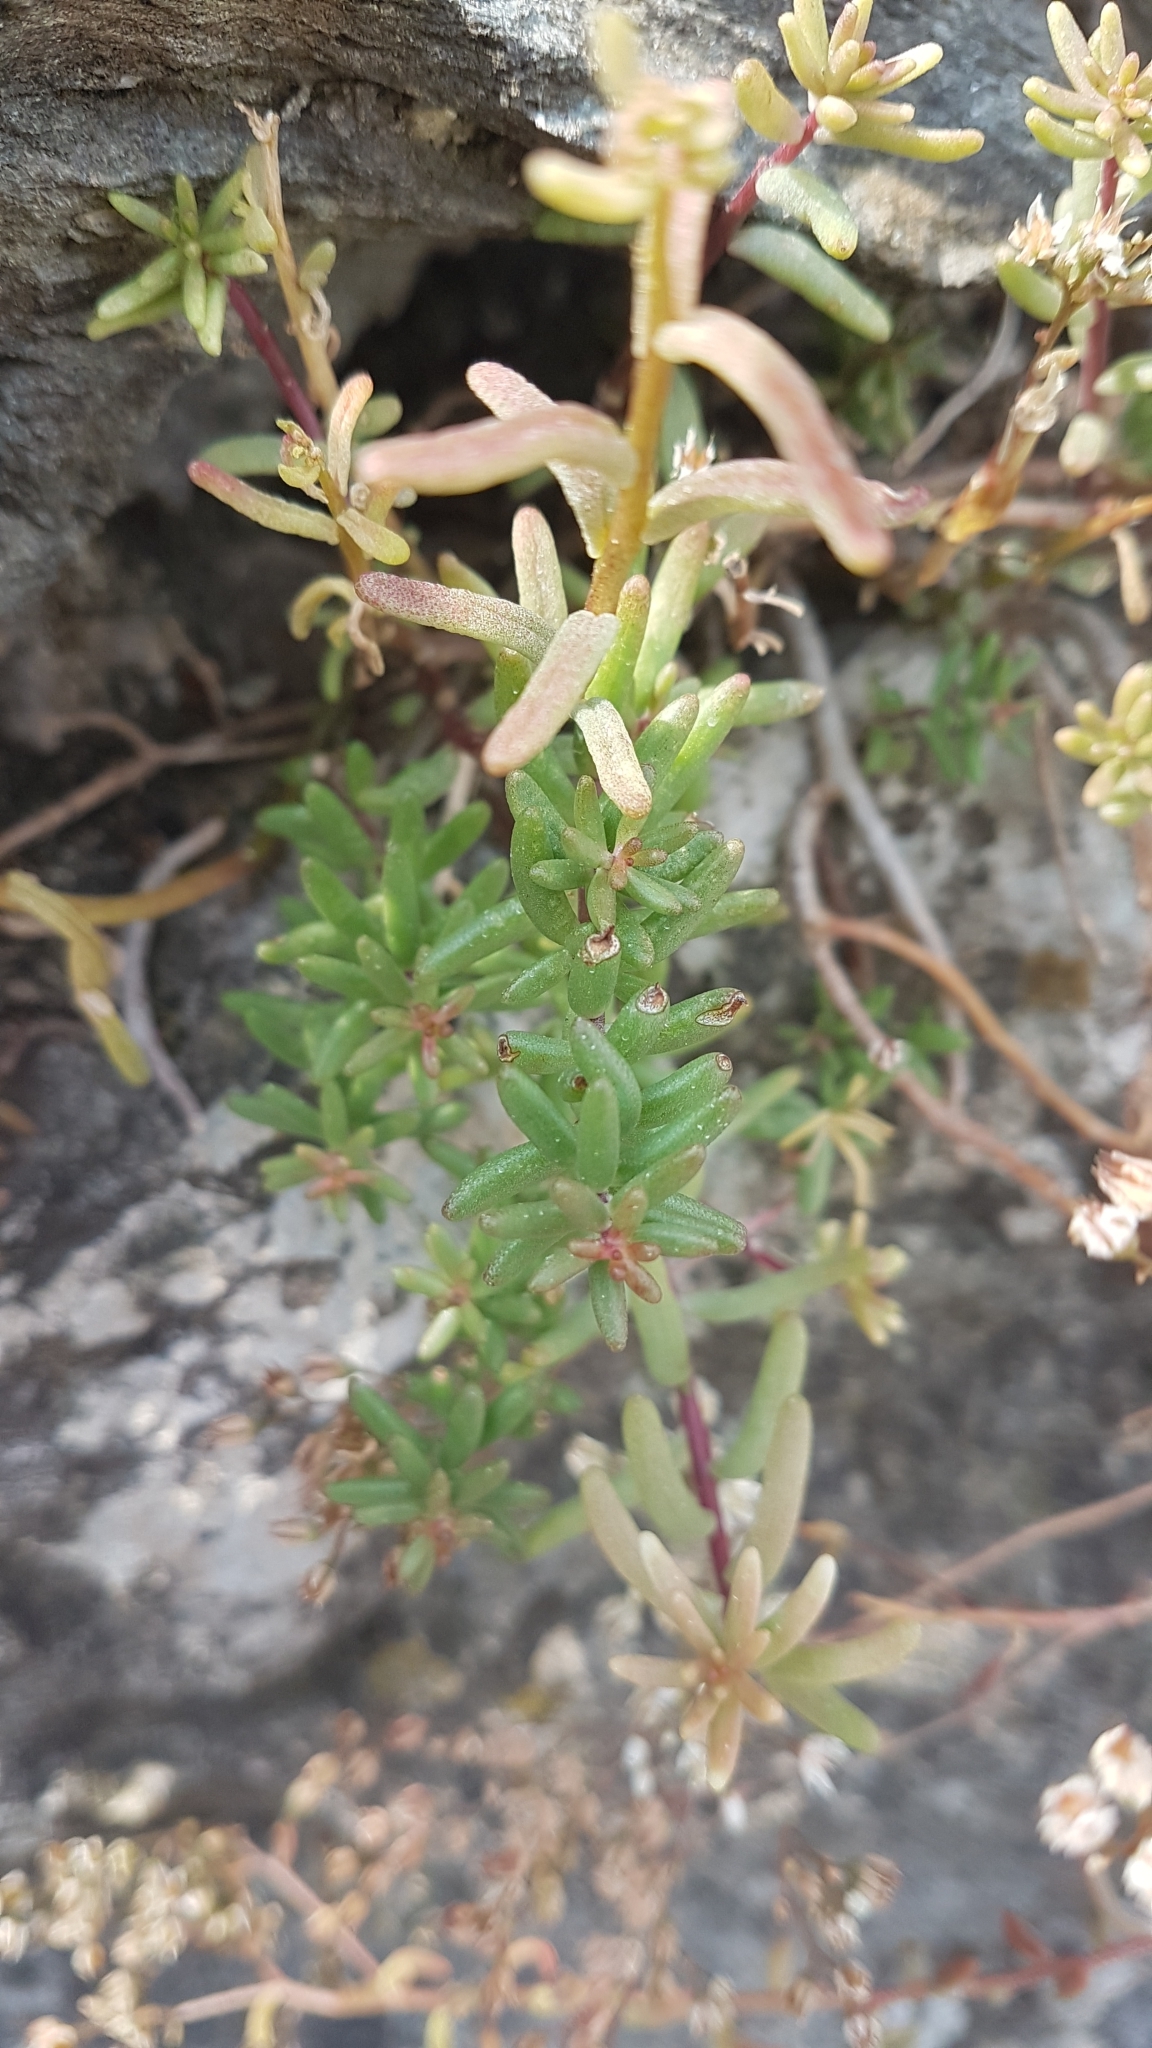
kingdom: Plantae
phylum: Tracheophyta
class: Magnoliopsida
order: Saxifragales
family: Crassulaceae
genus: Sedum
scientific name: Sedum album
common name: White stonecrop
